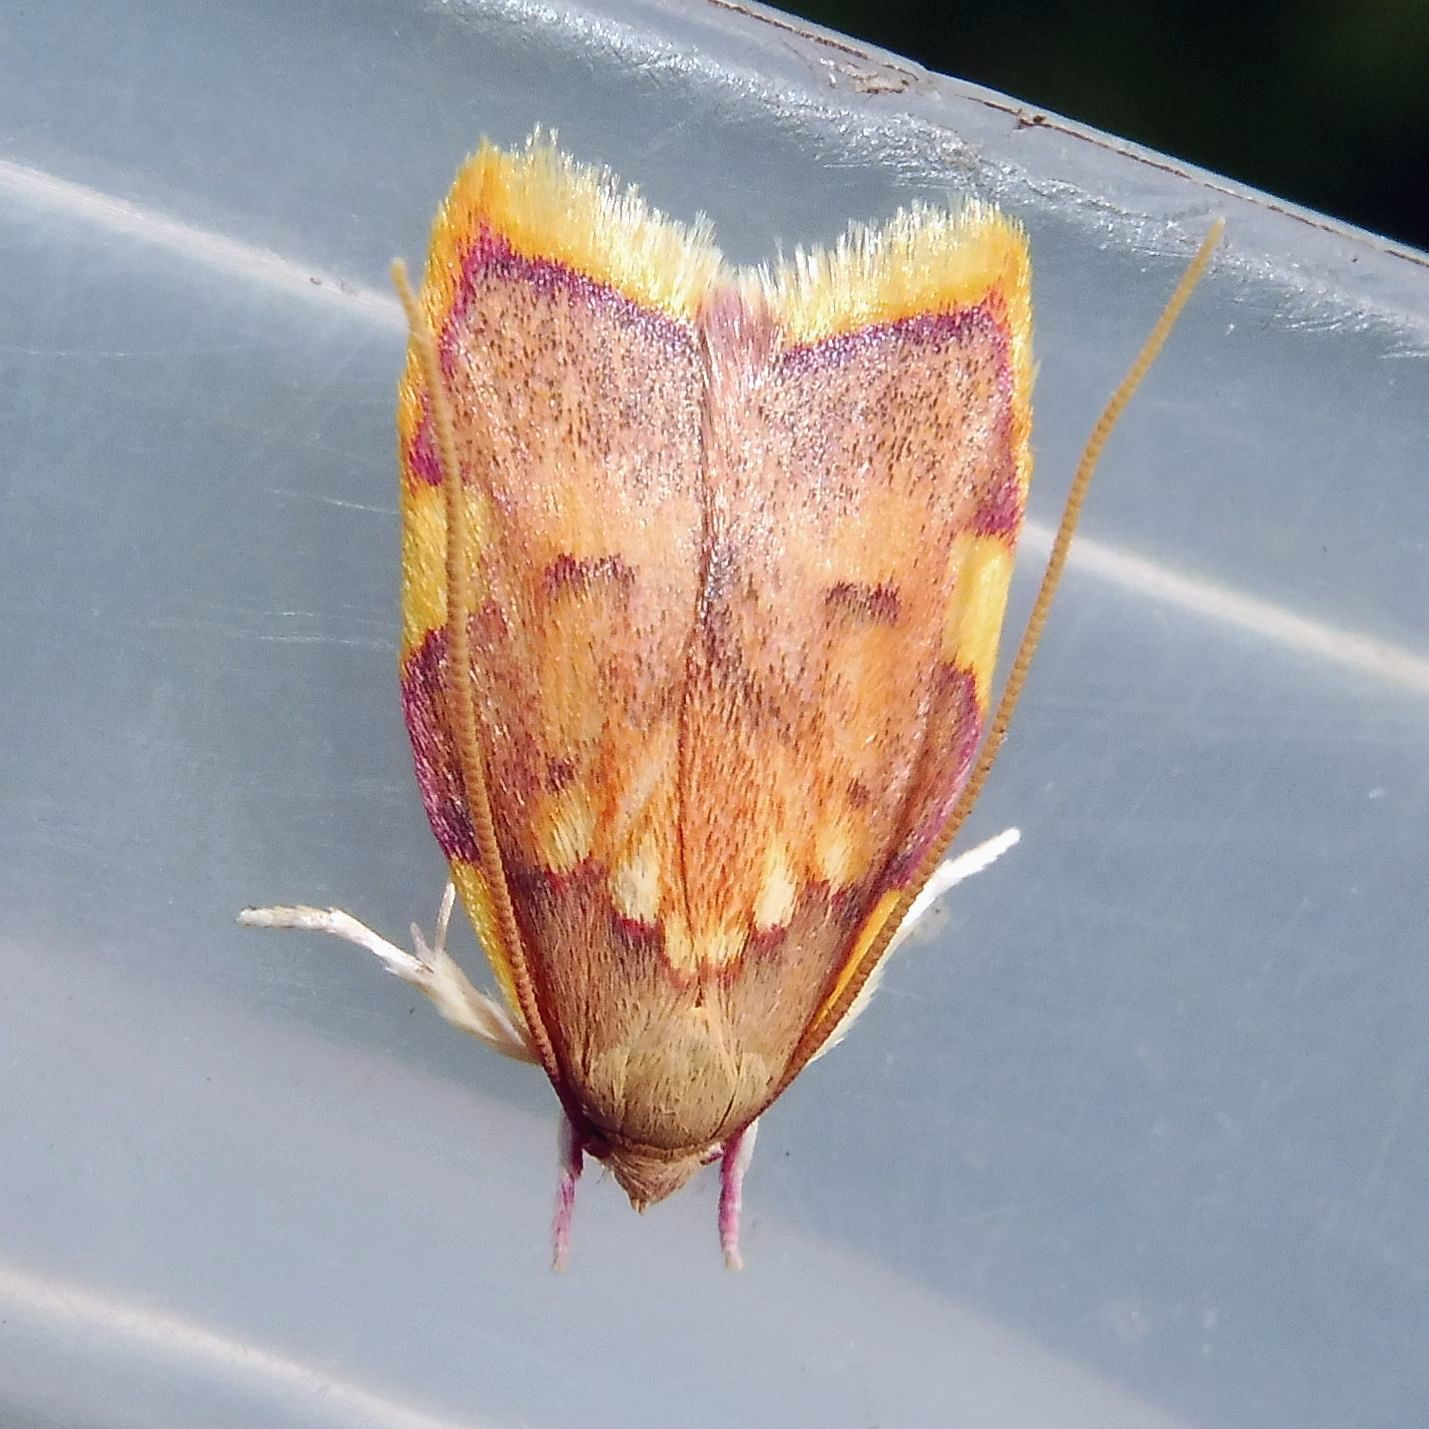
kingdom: Animalia
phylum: Arthropoda
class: Insecta
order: Lepidoptera
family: Peleopodidae
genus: Carcina
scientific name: Carcina quercana
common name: Moth
